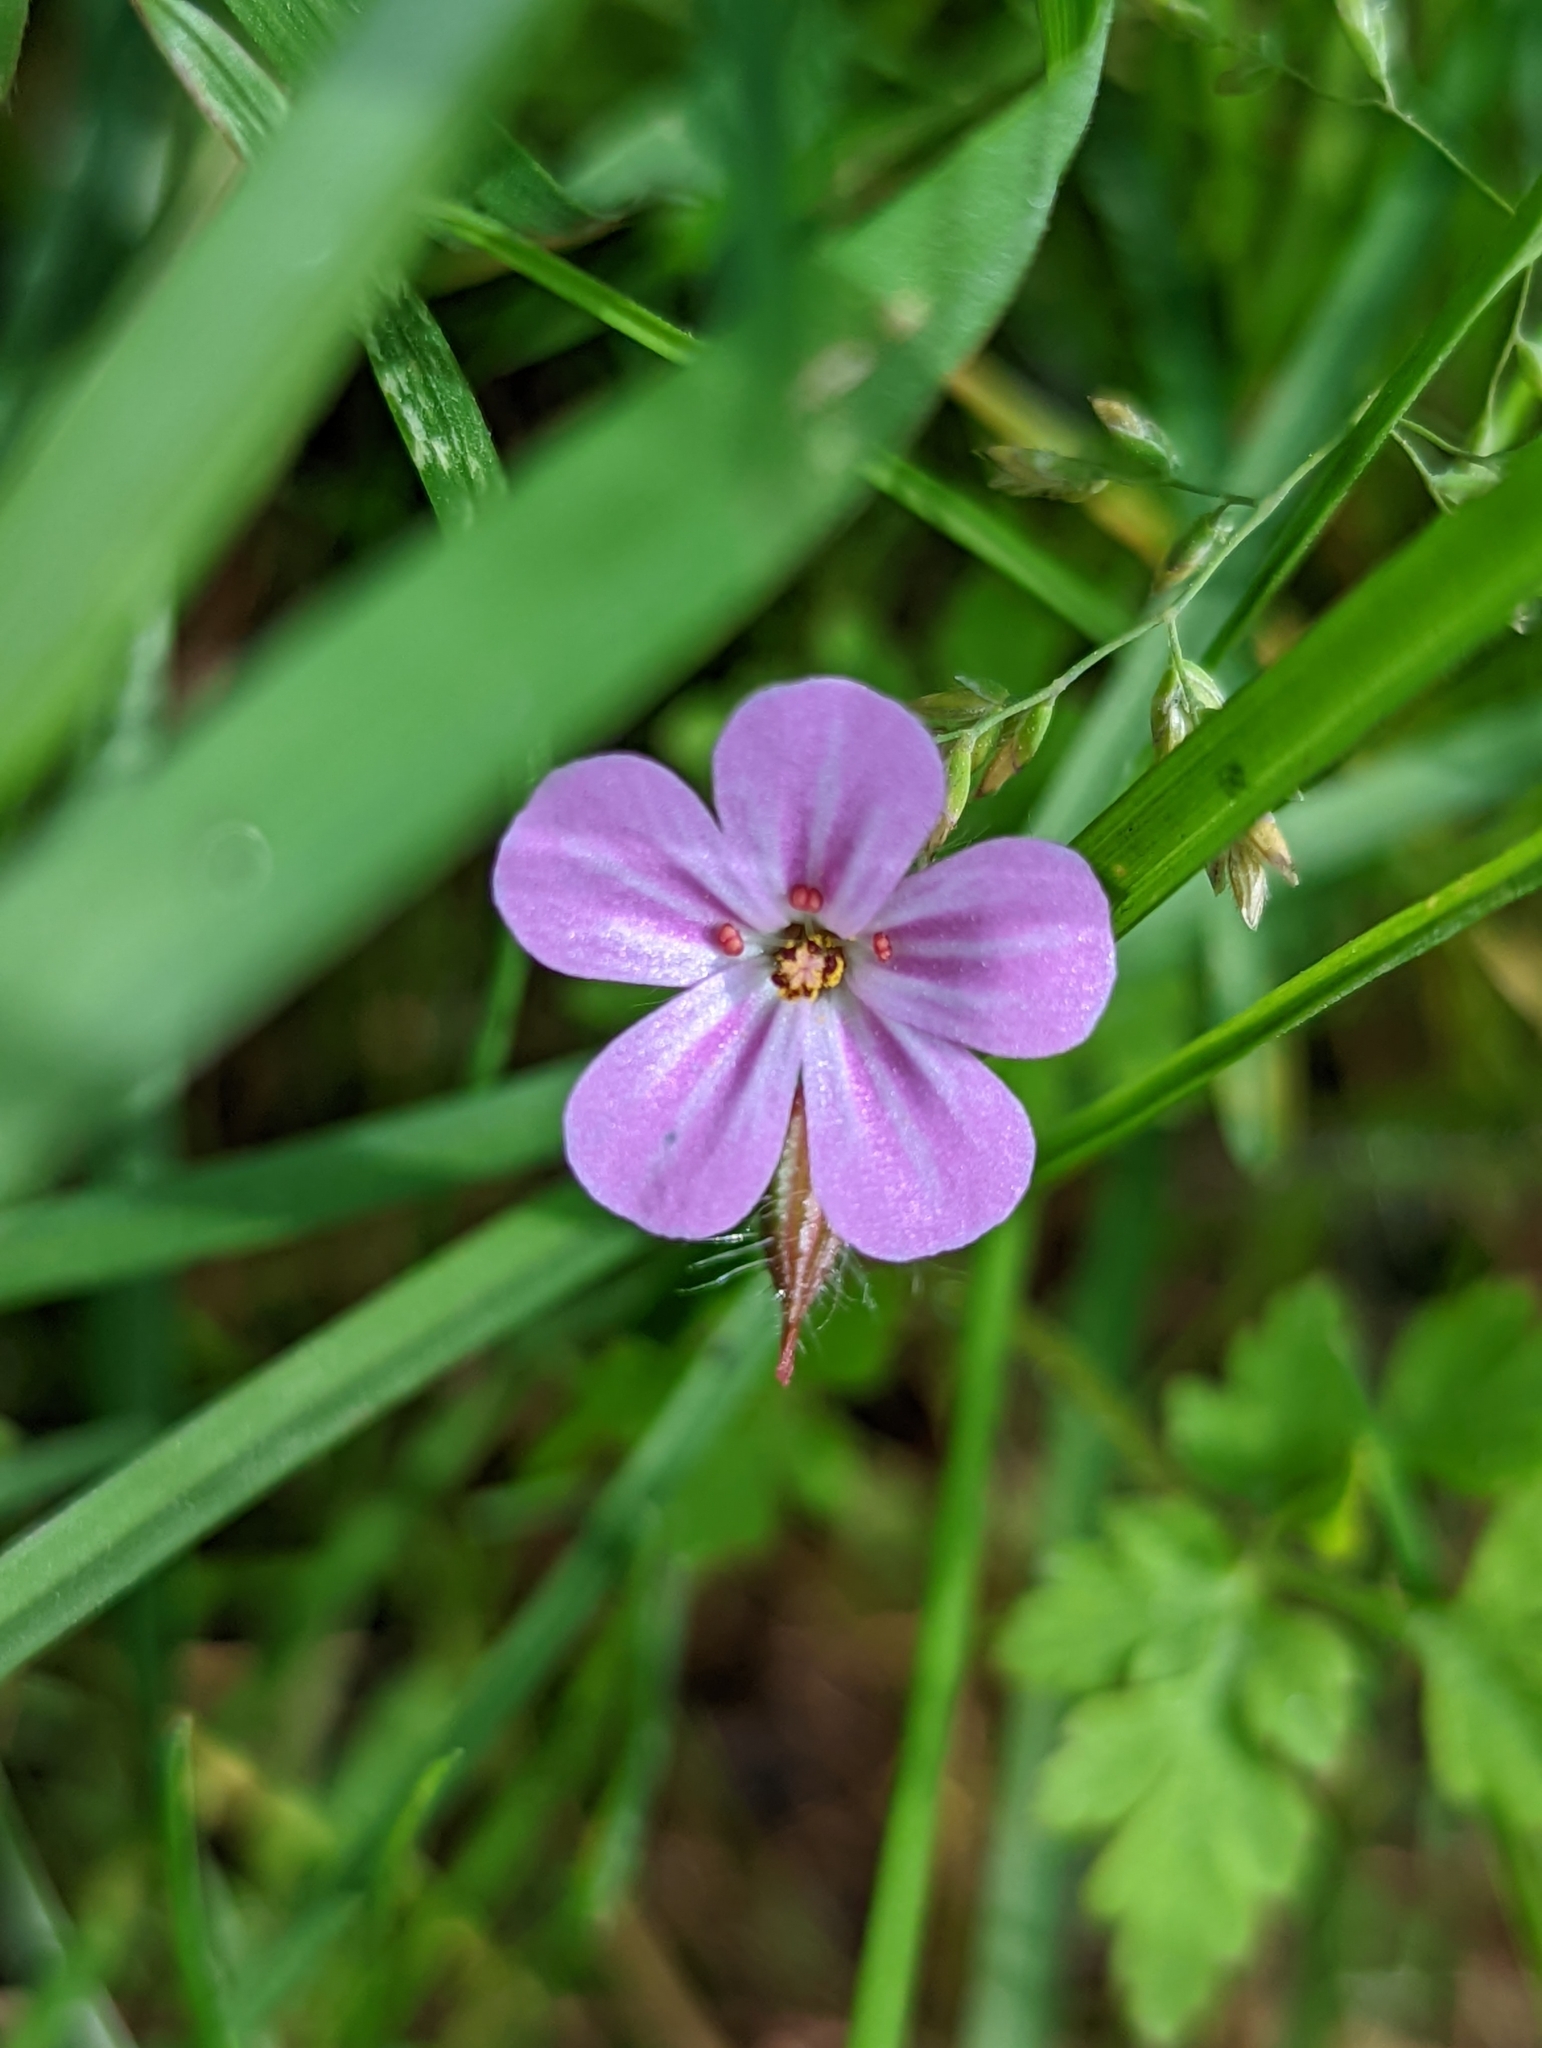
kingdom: Plantae
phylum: Tracheophyta
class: Magnoliopsida
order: Geraniales
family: Geraniaceae
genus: Geranium
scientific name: Geranium robertianum
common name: Herb-robert
